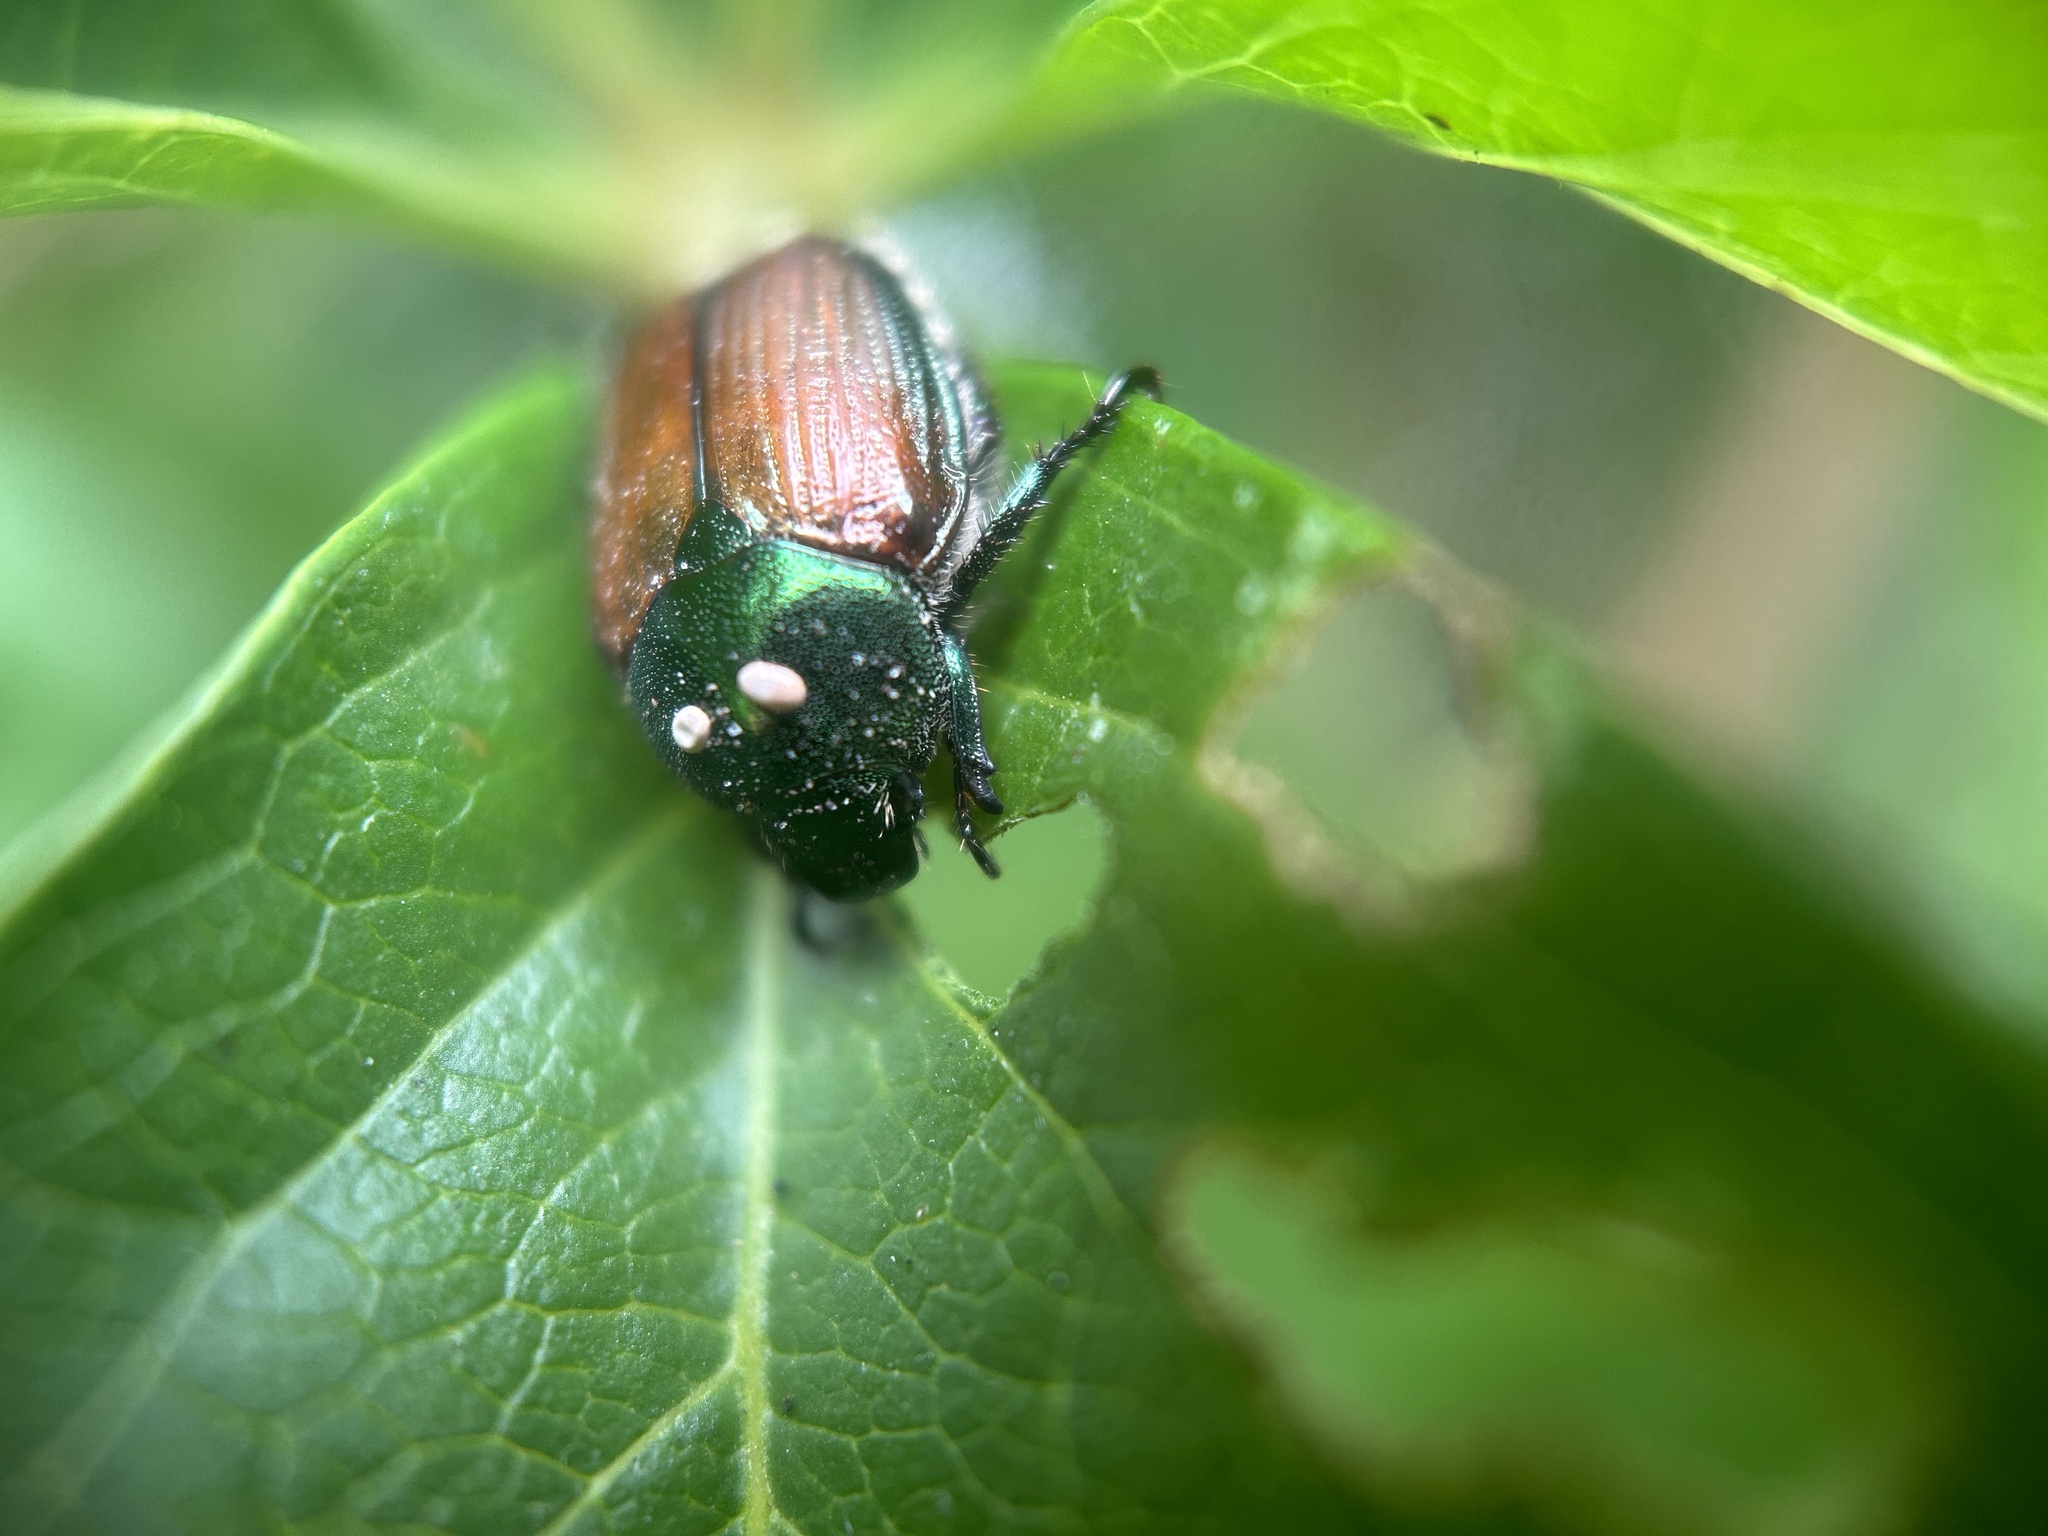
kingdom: Animalia
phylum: Arthropoda
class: Insecta
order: Diptera
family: Tachinidae
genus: Istocheta
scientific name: Istocheta aldrichi
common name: Parasitic wasp
